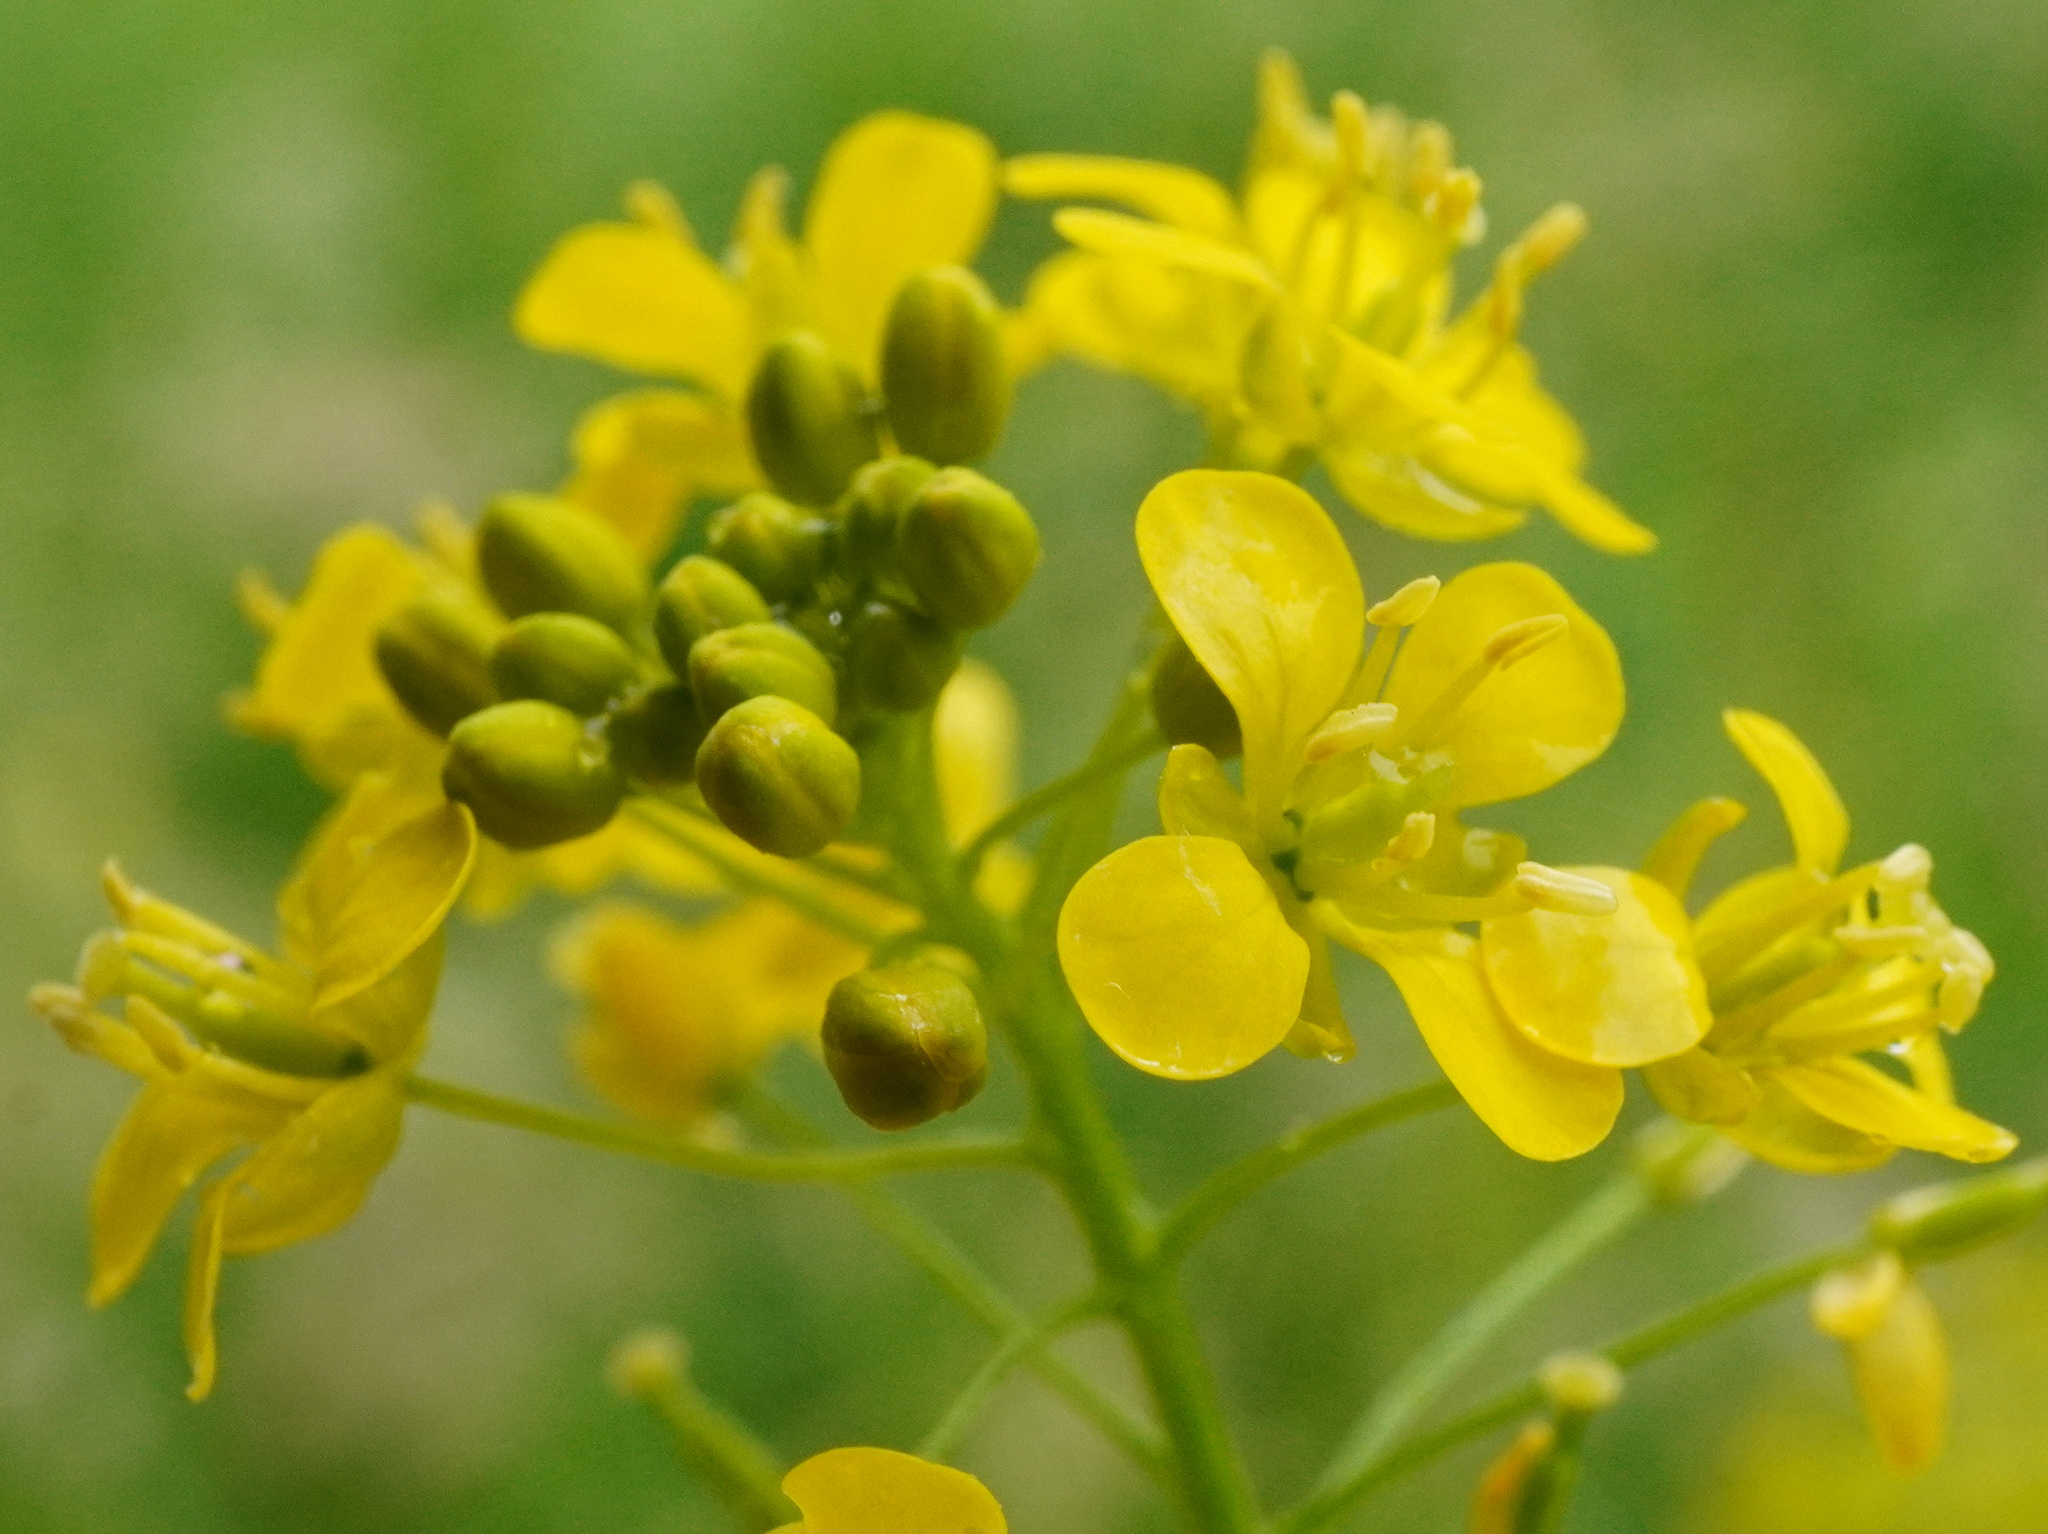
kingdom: Plantae
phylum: Tracheophyta
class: Magnoliopsida
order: Brassicales
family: Brassicaceae
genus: Rorippa
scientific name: Rorippa amphibia
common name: Great yellow-cress
